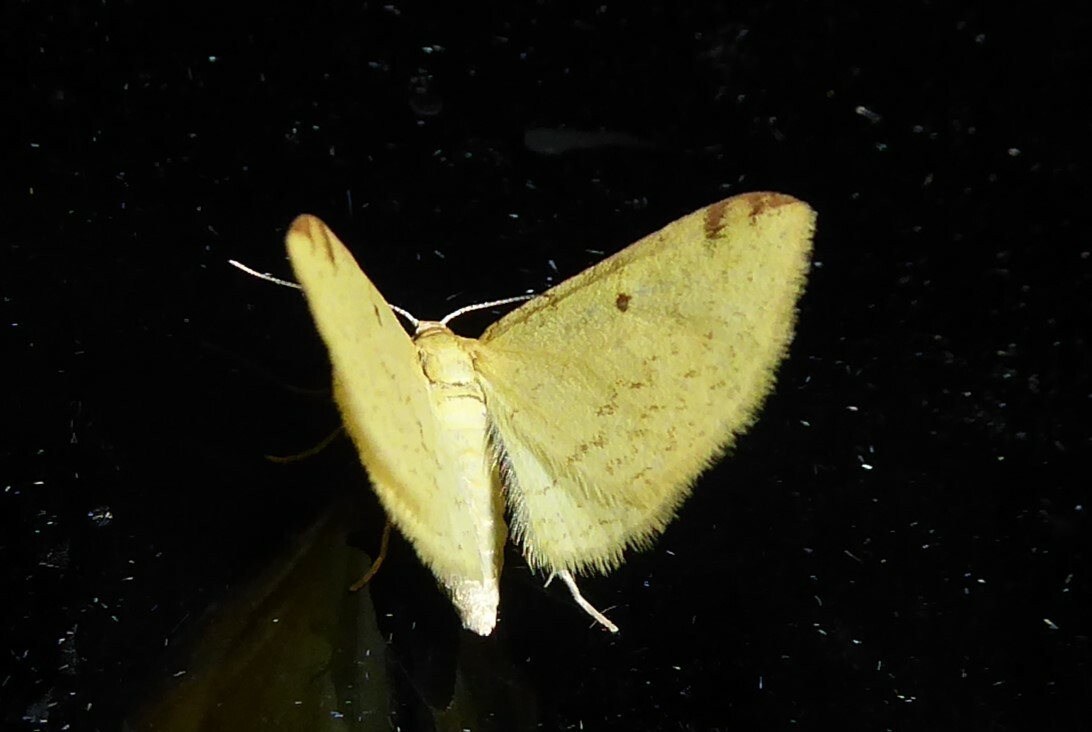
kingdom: Animalia
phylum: Arthropoda
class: Insecta
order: Lepidoptera
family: Geometridae
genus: Epiphryne
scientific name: Epiphryne undosata
